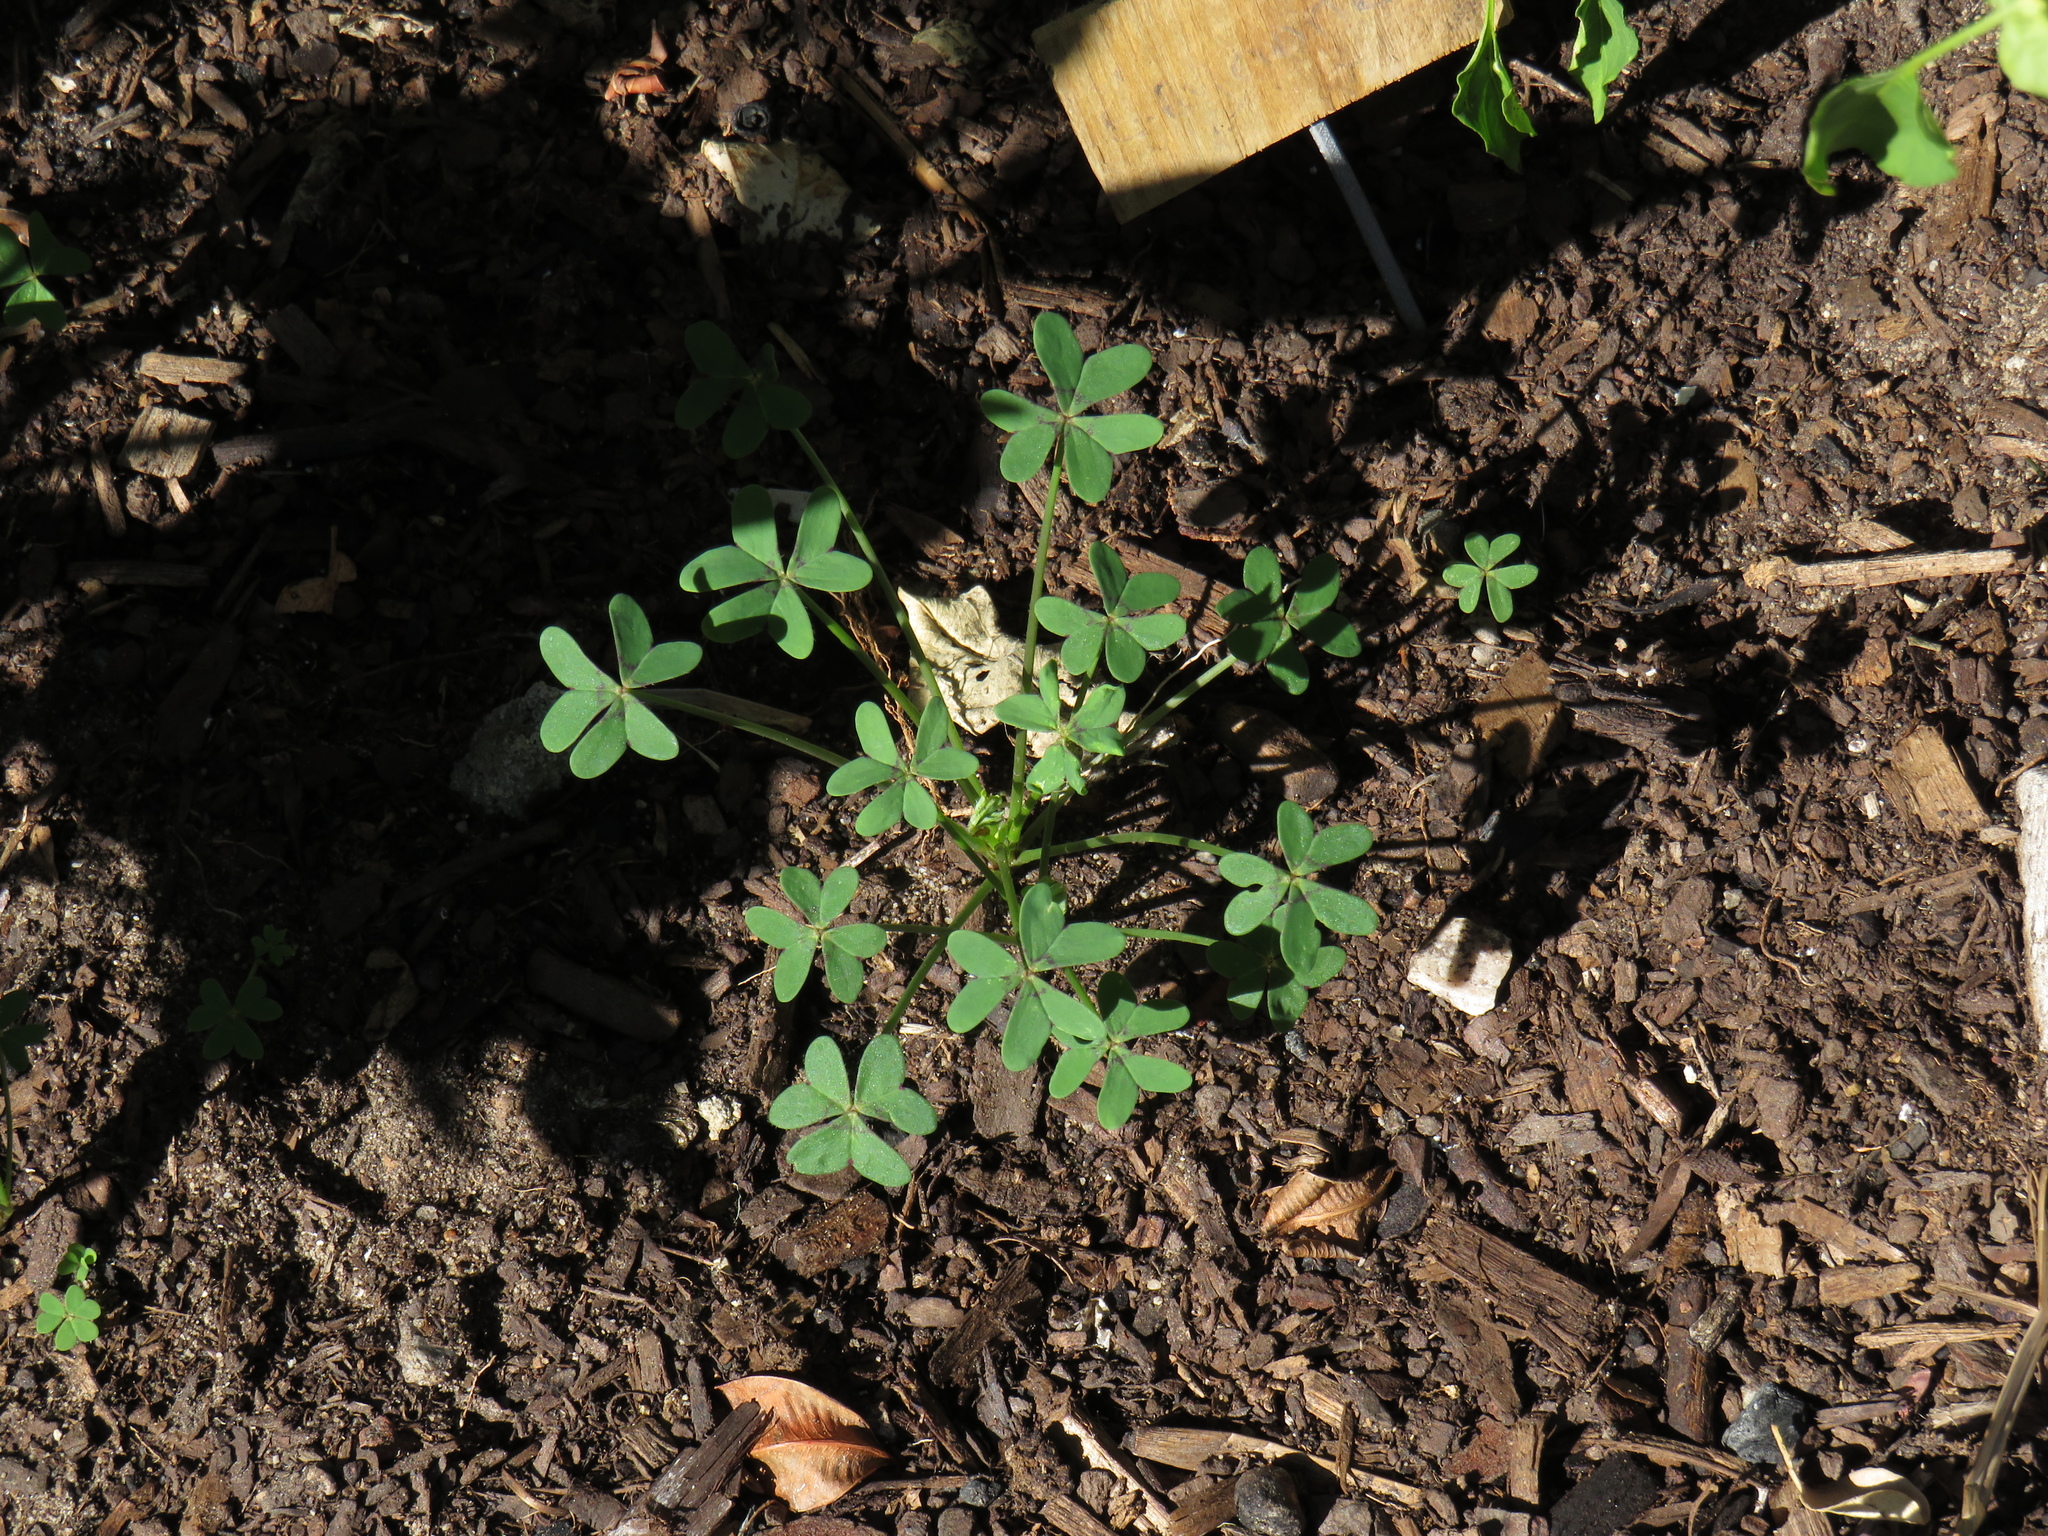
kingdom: Plantae
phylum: Tracheophyta
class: Magnoliopsida
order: Oxalidales
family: Oxalidaceae
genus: Oxalis
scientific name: Oxalis pes-caprae
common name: Bermuda-buttercup
